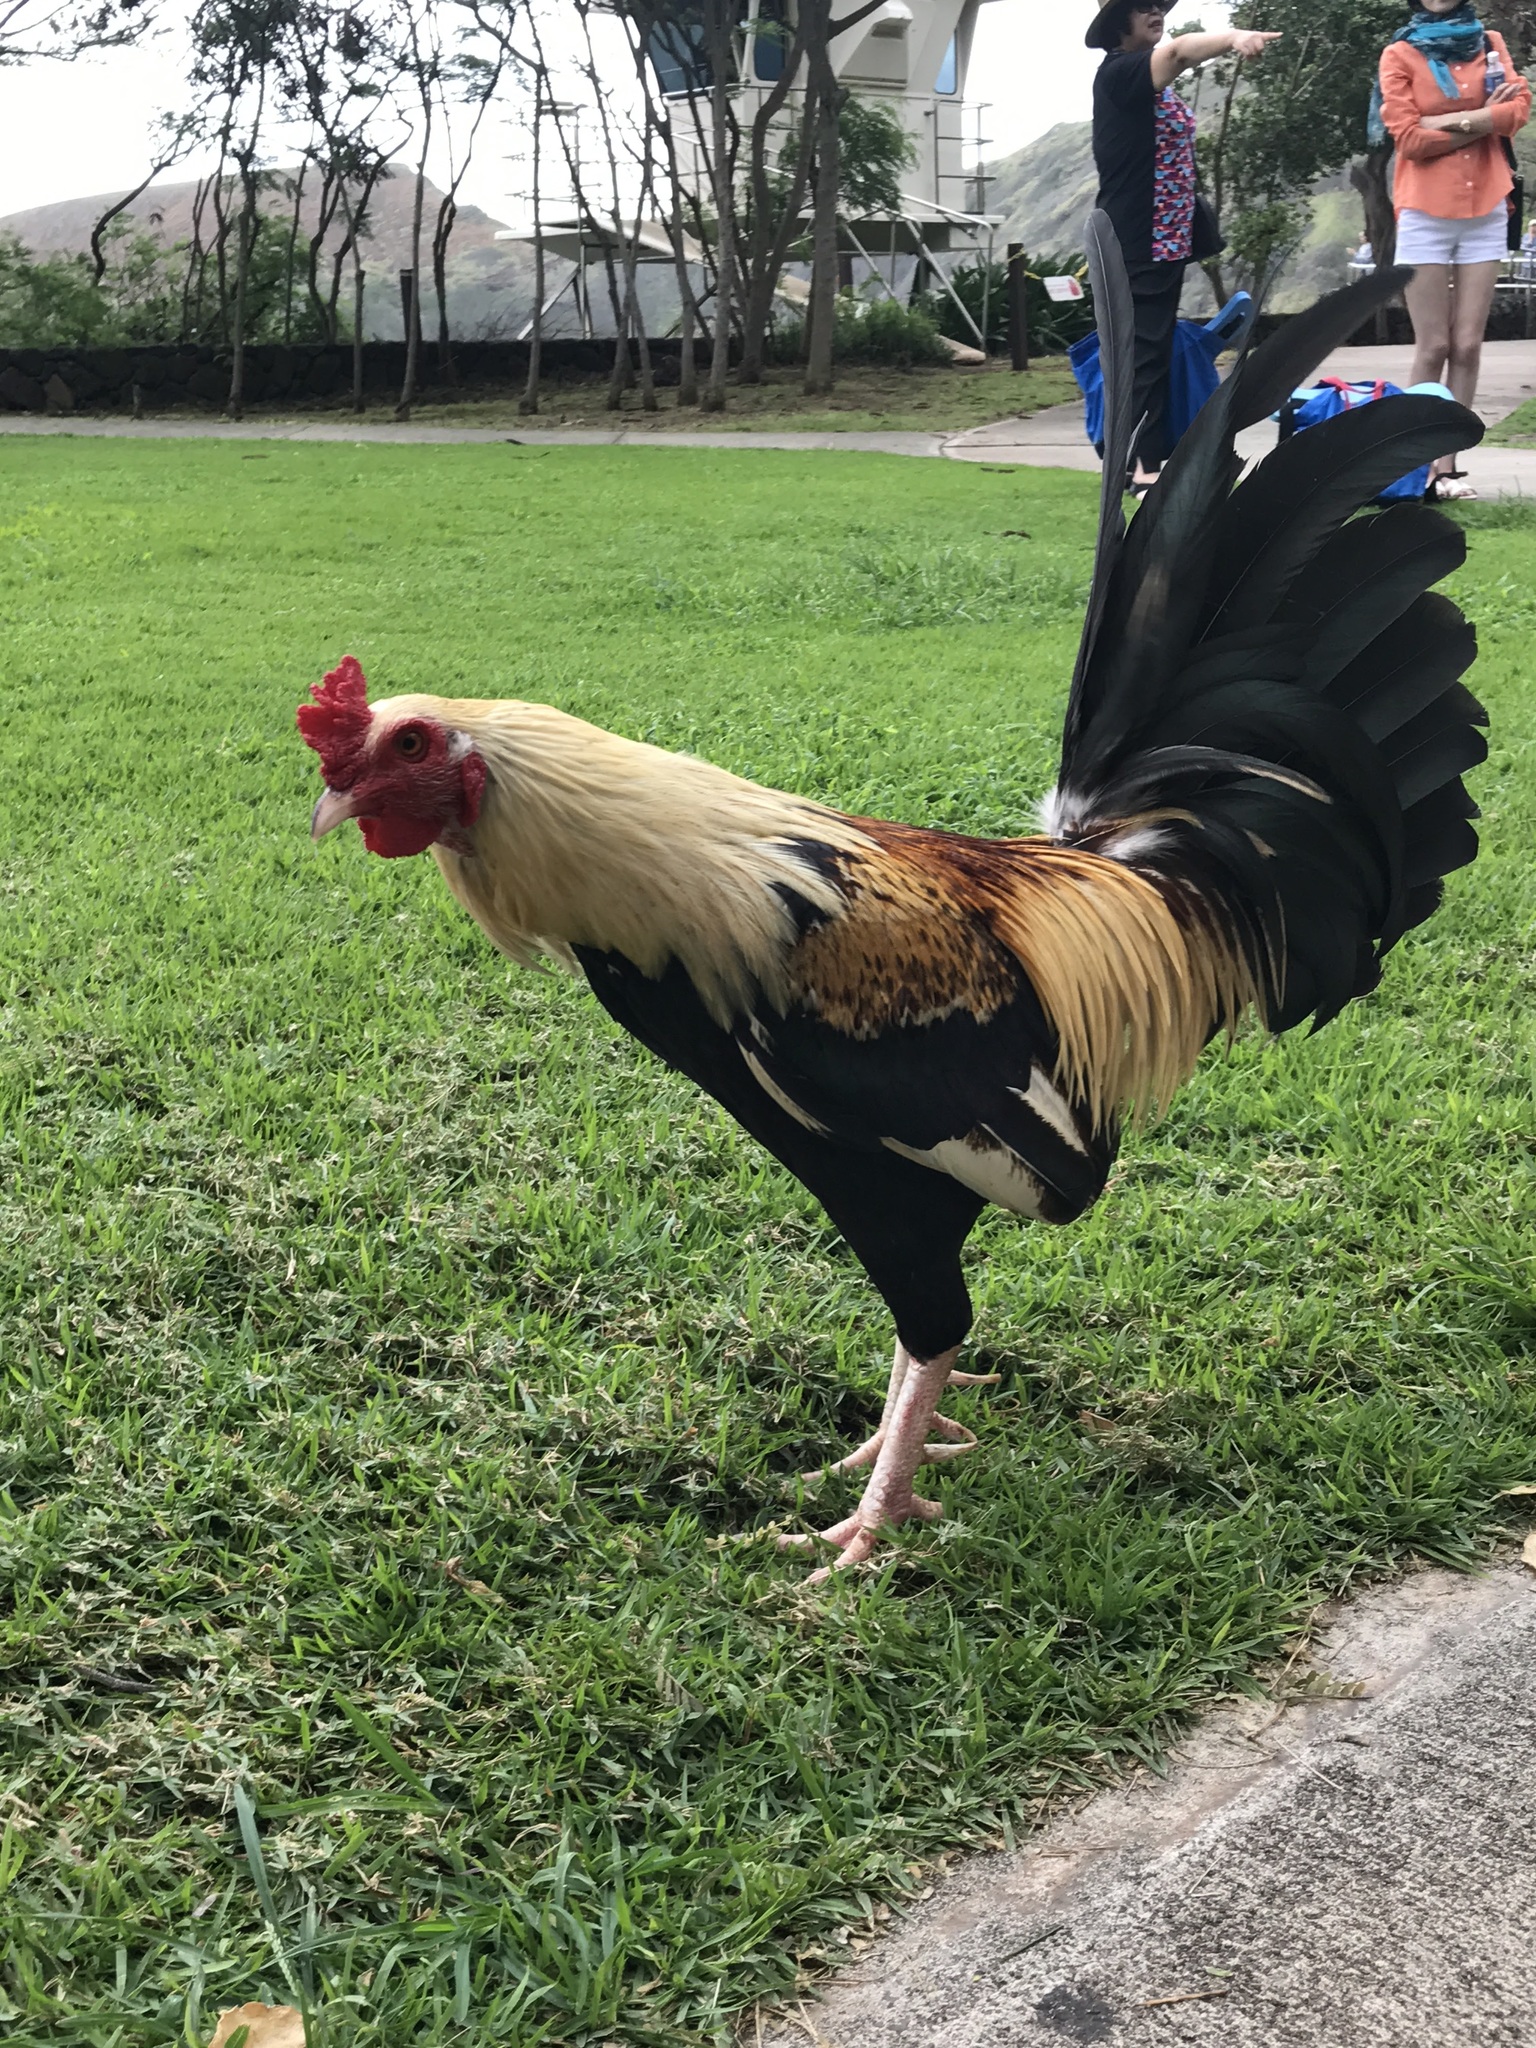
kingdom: Animalia
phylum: Chordata
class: Aves
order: Galliformes
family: Phasianidae
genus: Gallus
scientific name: Gallus gallus
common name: Red junglefowl
